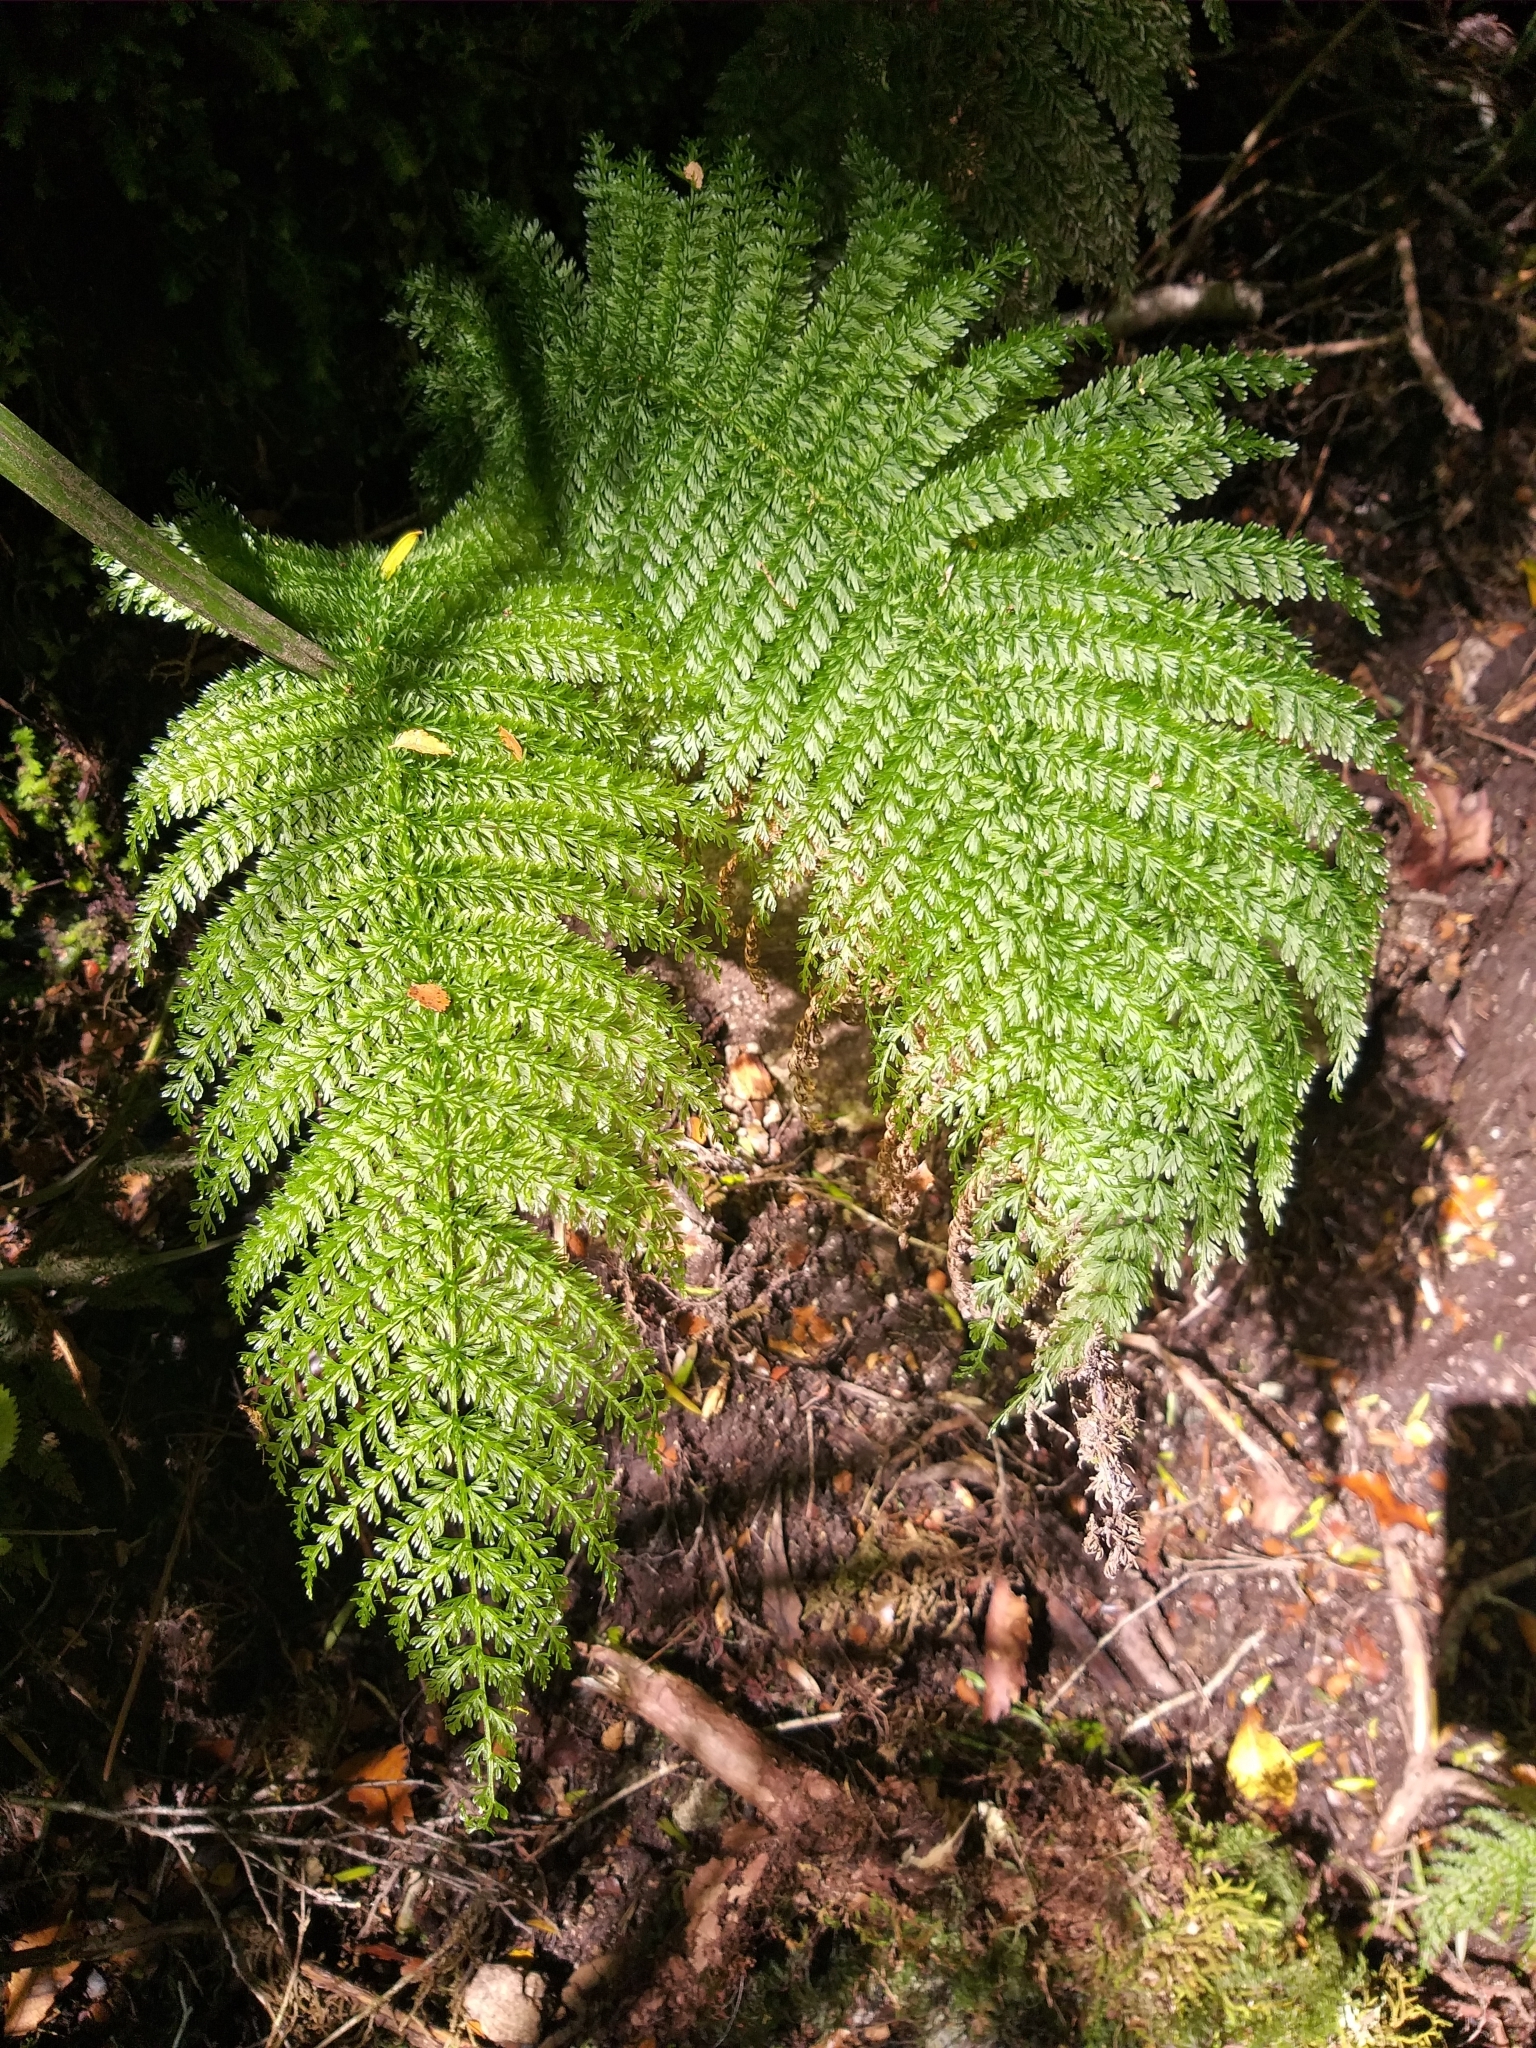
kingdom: Plantae
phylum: Tracheophyta
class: Polypodiopsida
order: Osmundales
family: Osmundaceae
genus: Leptopteris
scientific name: Leptopteris superba
